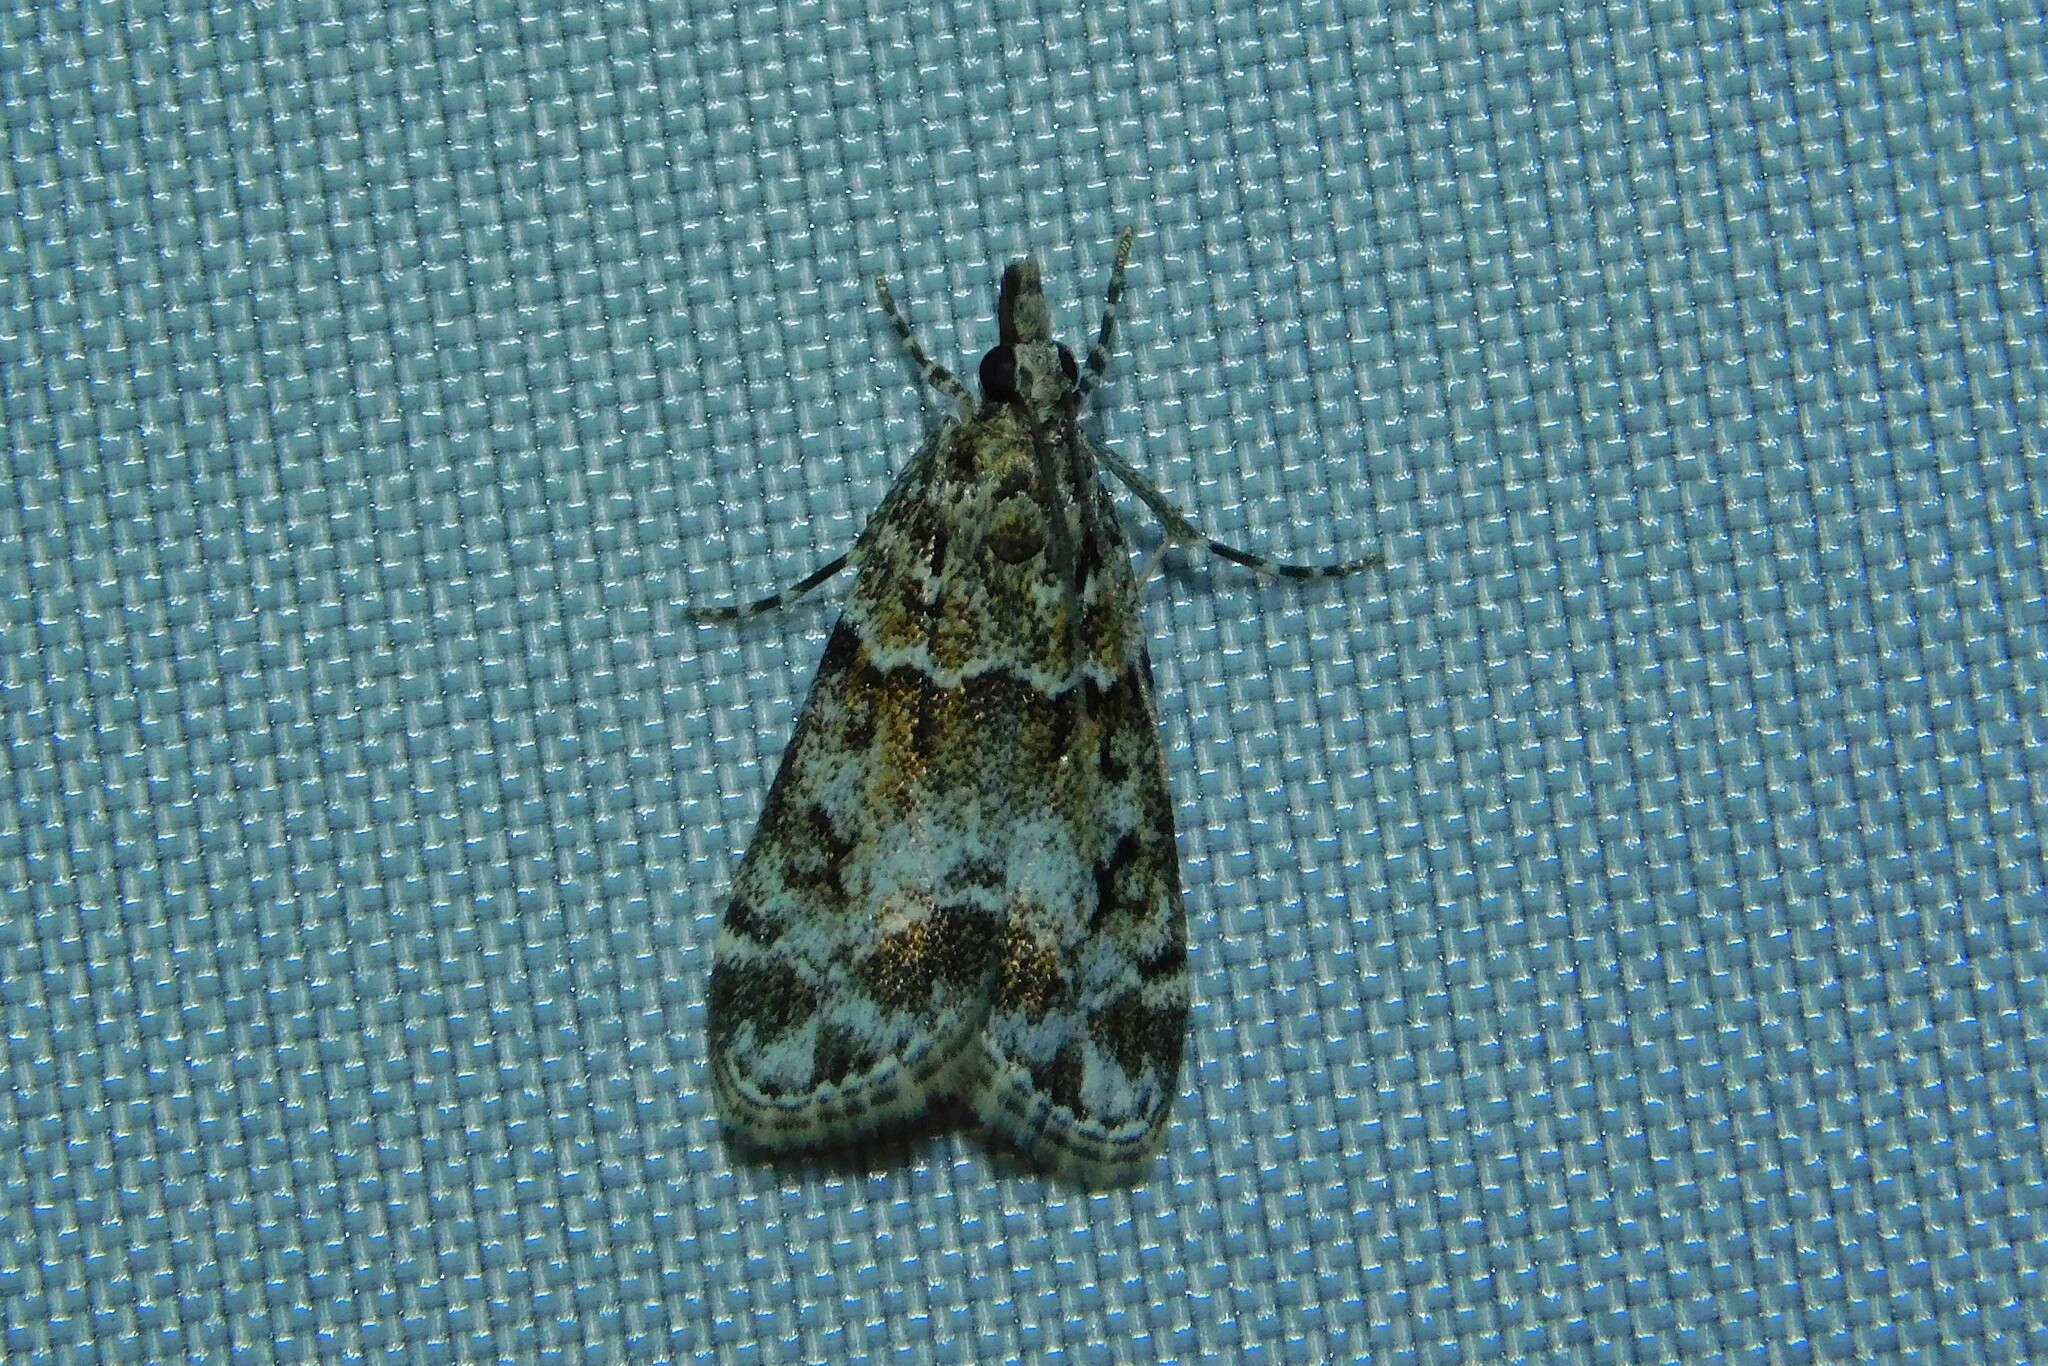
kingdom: Animalia
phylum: Arthropoda
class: Insecta
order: Lepidoptera
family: Crambidae
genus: Eudonia
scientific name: Eudonia mercurella
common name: Small grey
